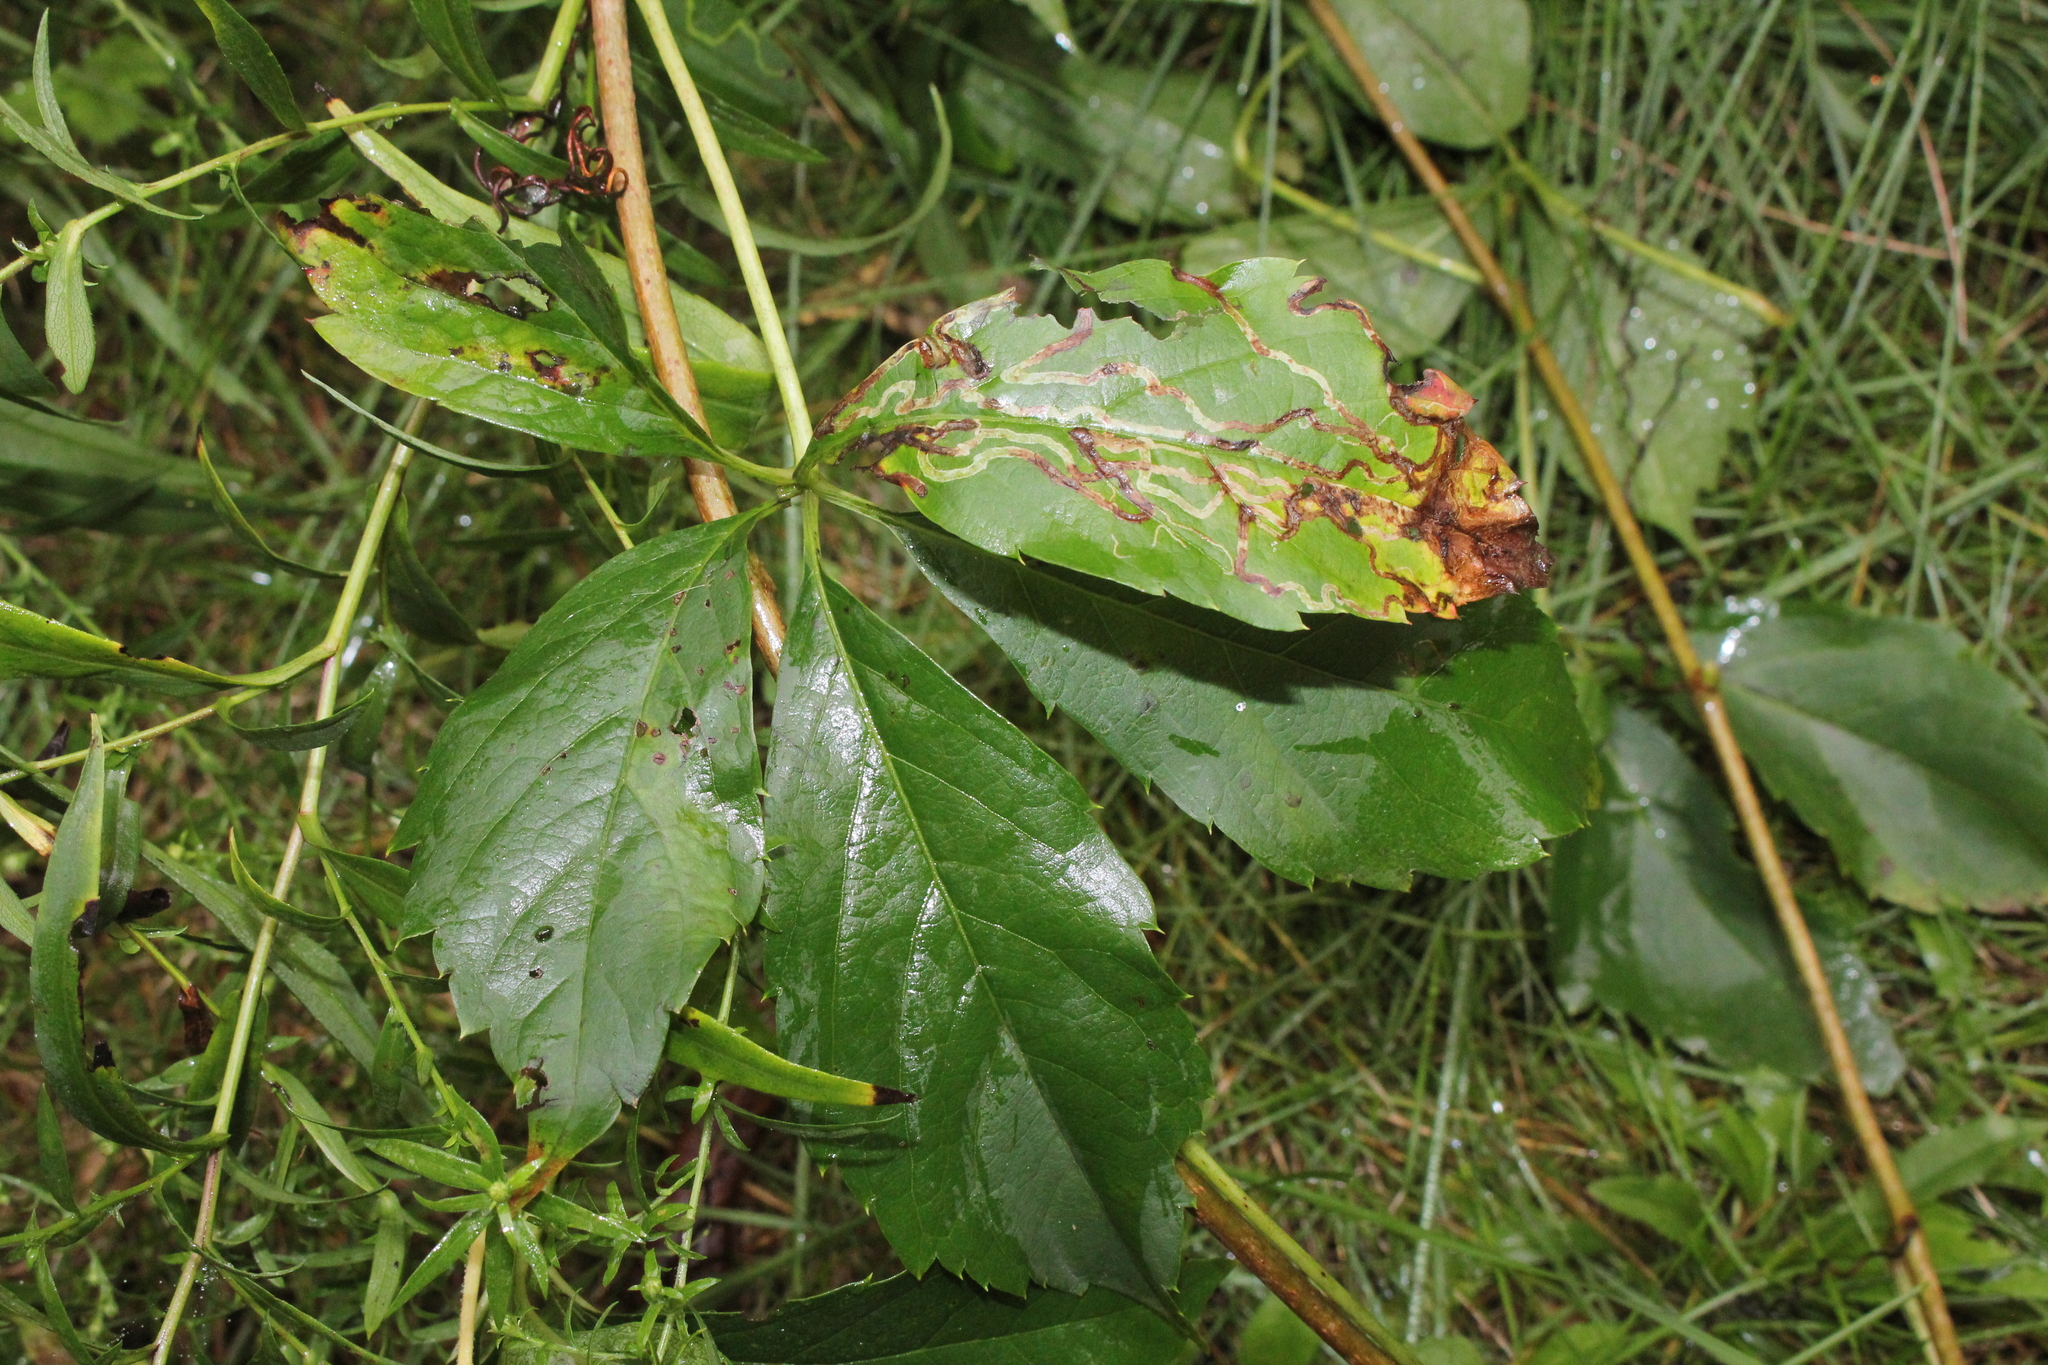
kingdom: Animalia
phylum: Arthropoda
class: Insecta
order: Lepidoptera
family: Gracillariidae
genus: Phyllocnistis
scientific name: Phyllocnistis ampelopsiella
